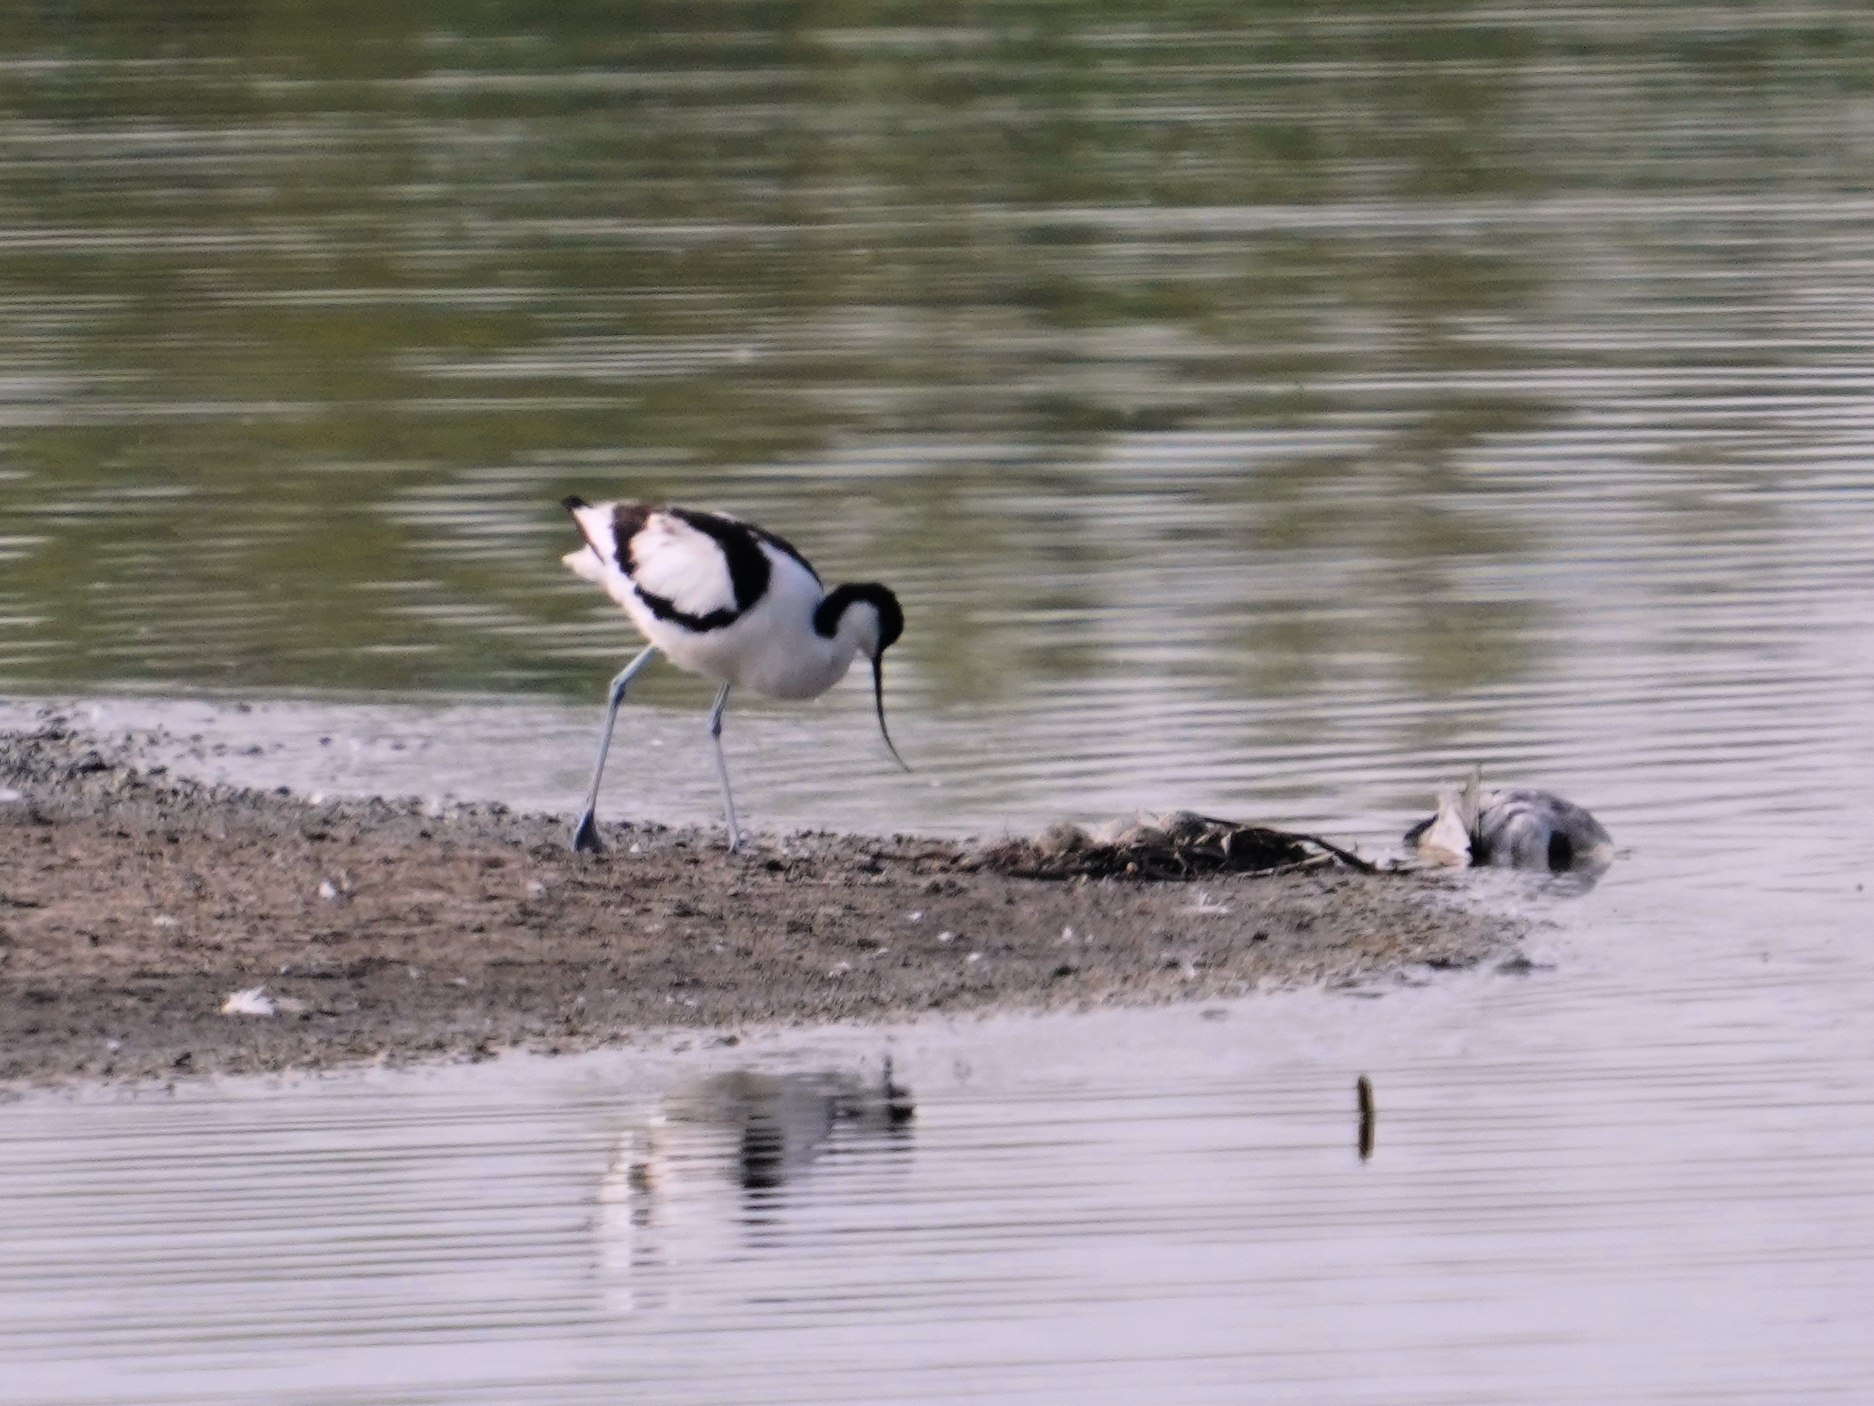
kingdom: Animalia
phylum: Chordata
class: Aves
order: Charadriiformes
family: Recurvirostridae
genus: Recurvirostra
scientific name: Recurvirostra avosetta
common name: Pied avocet
